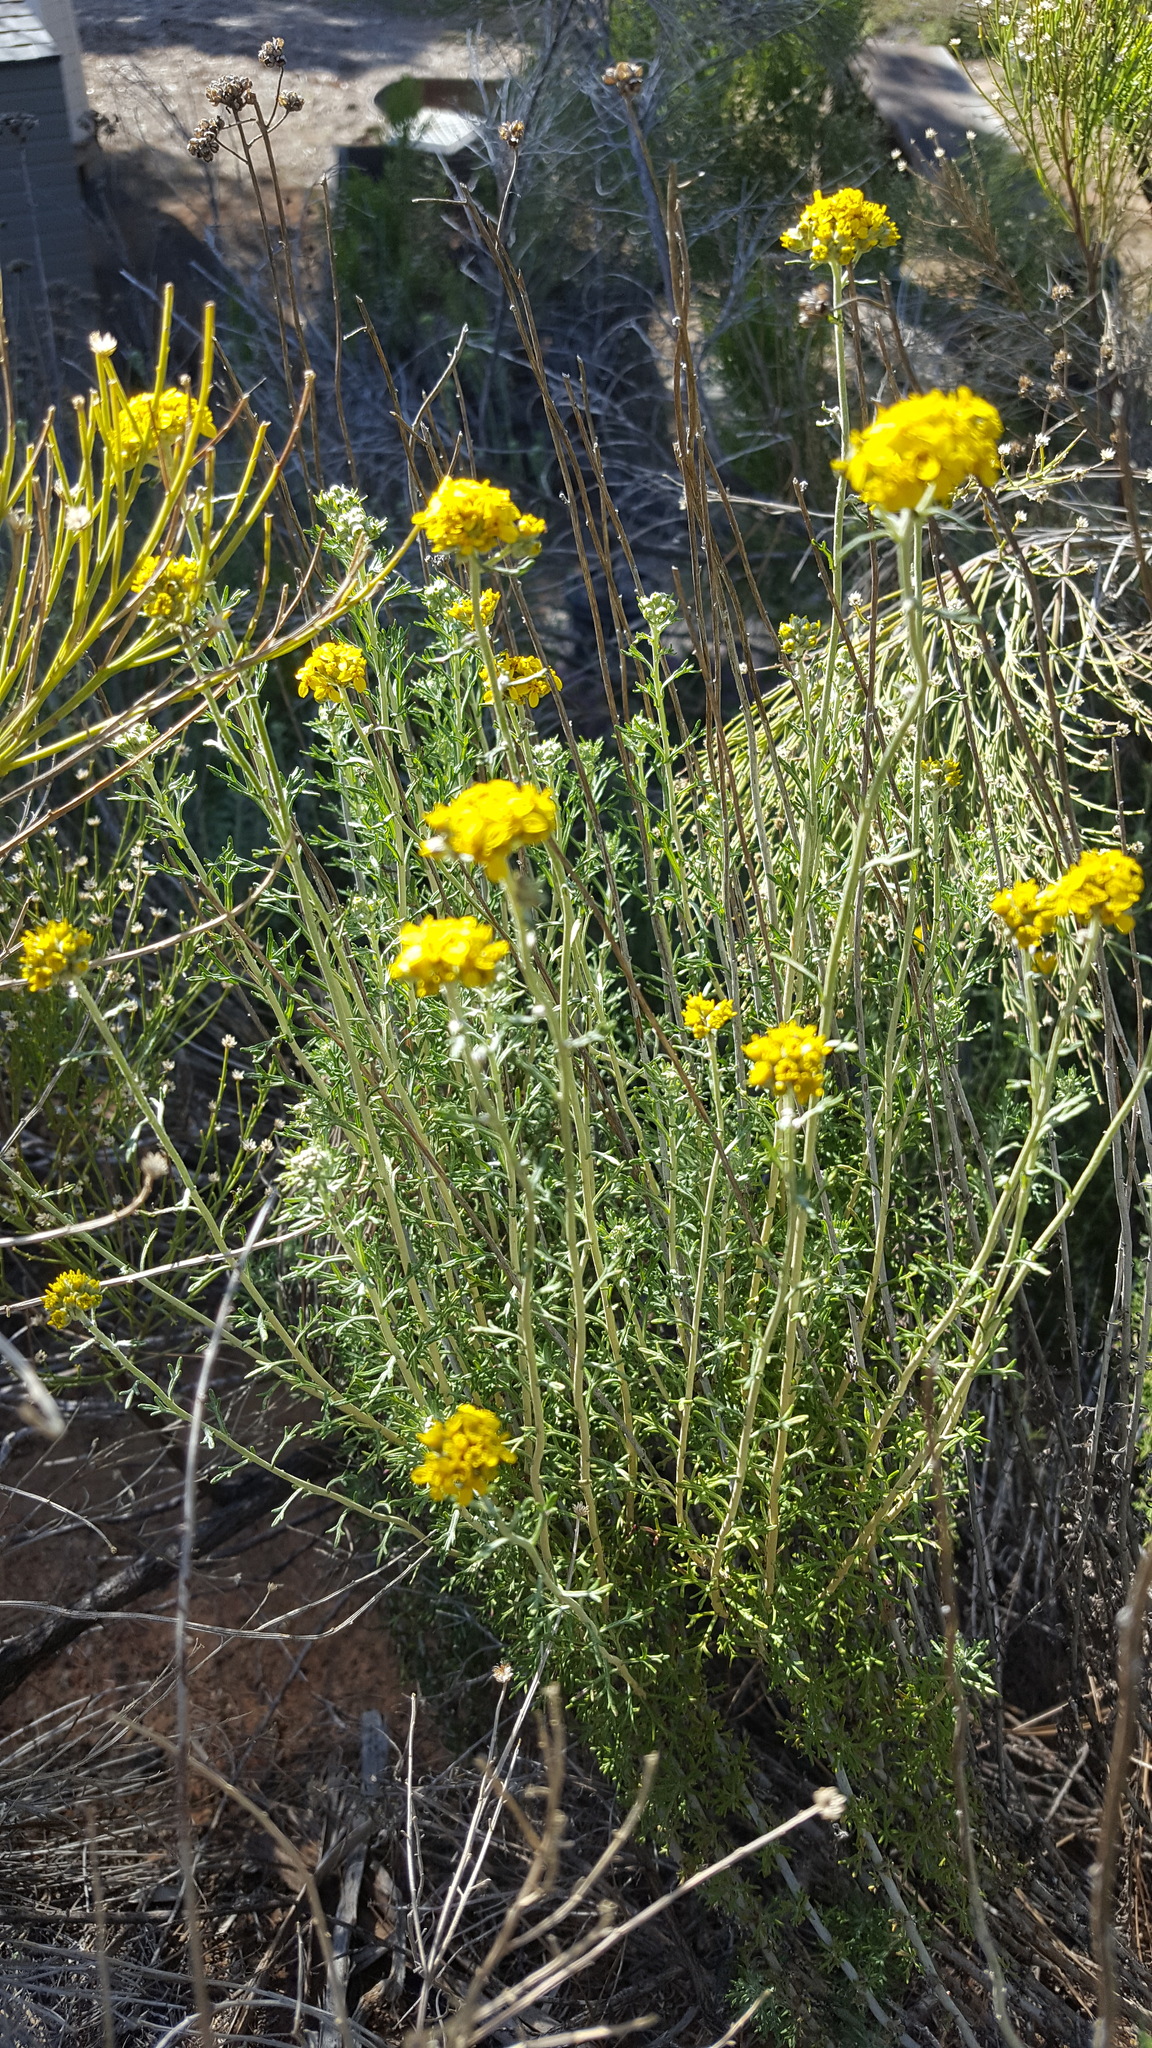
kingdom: Plantae
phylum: Tracheophyta
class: Magnoliopsida
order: Asterales
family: Asteraceae
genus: Eriophyllum
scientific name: Eriophyllum confertiflorum
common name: Golden-yarrow
